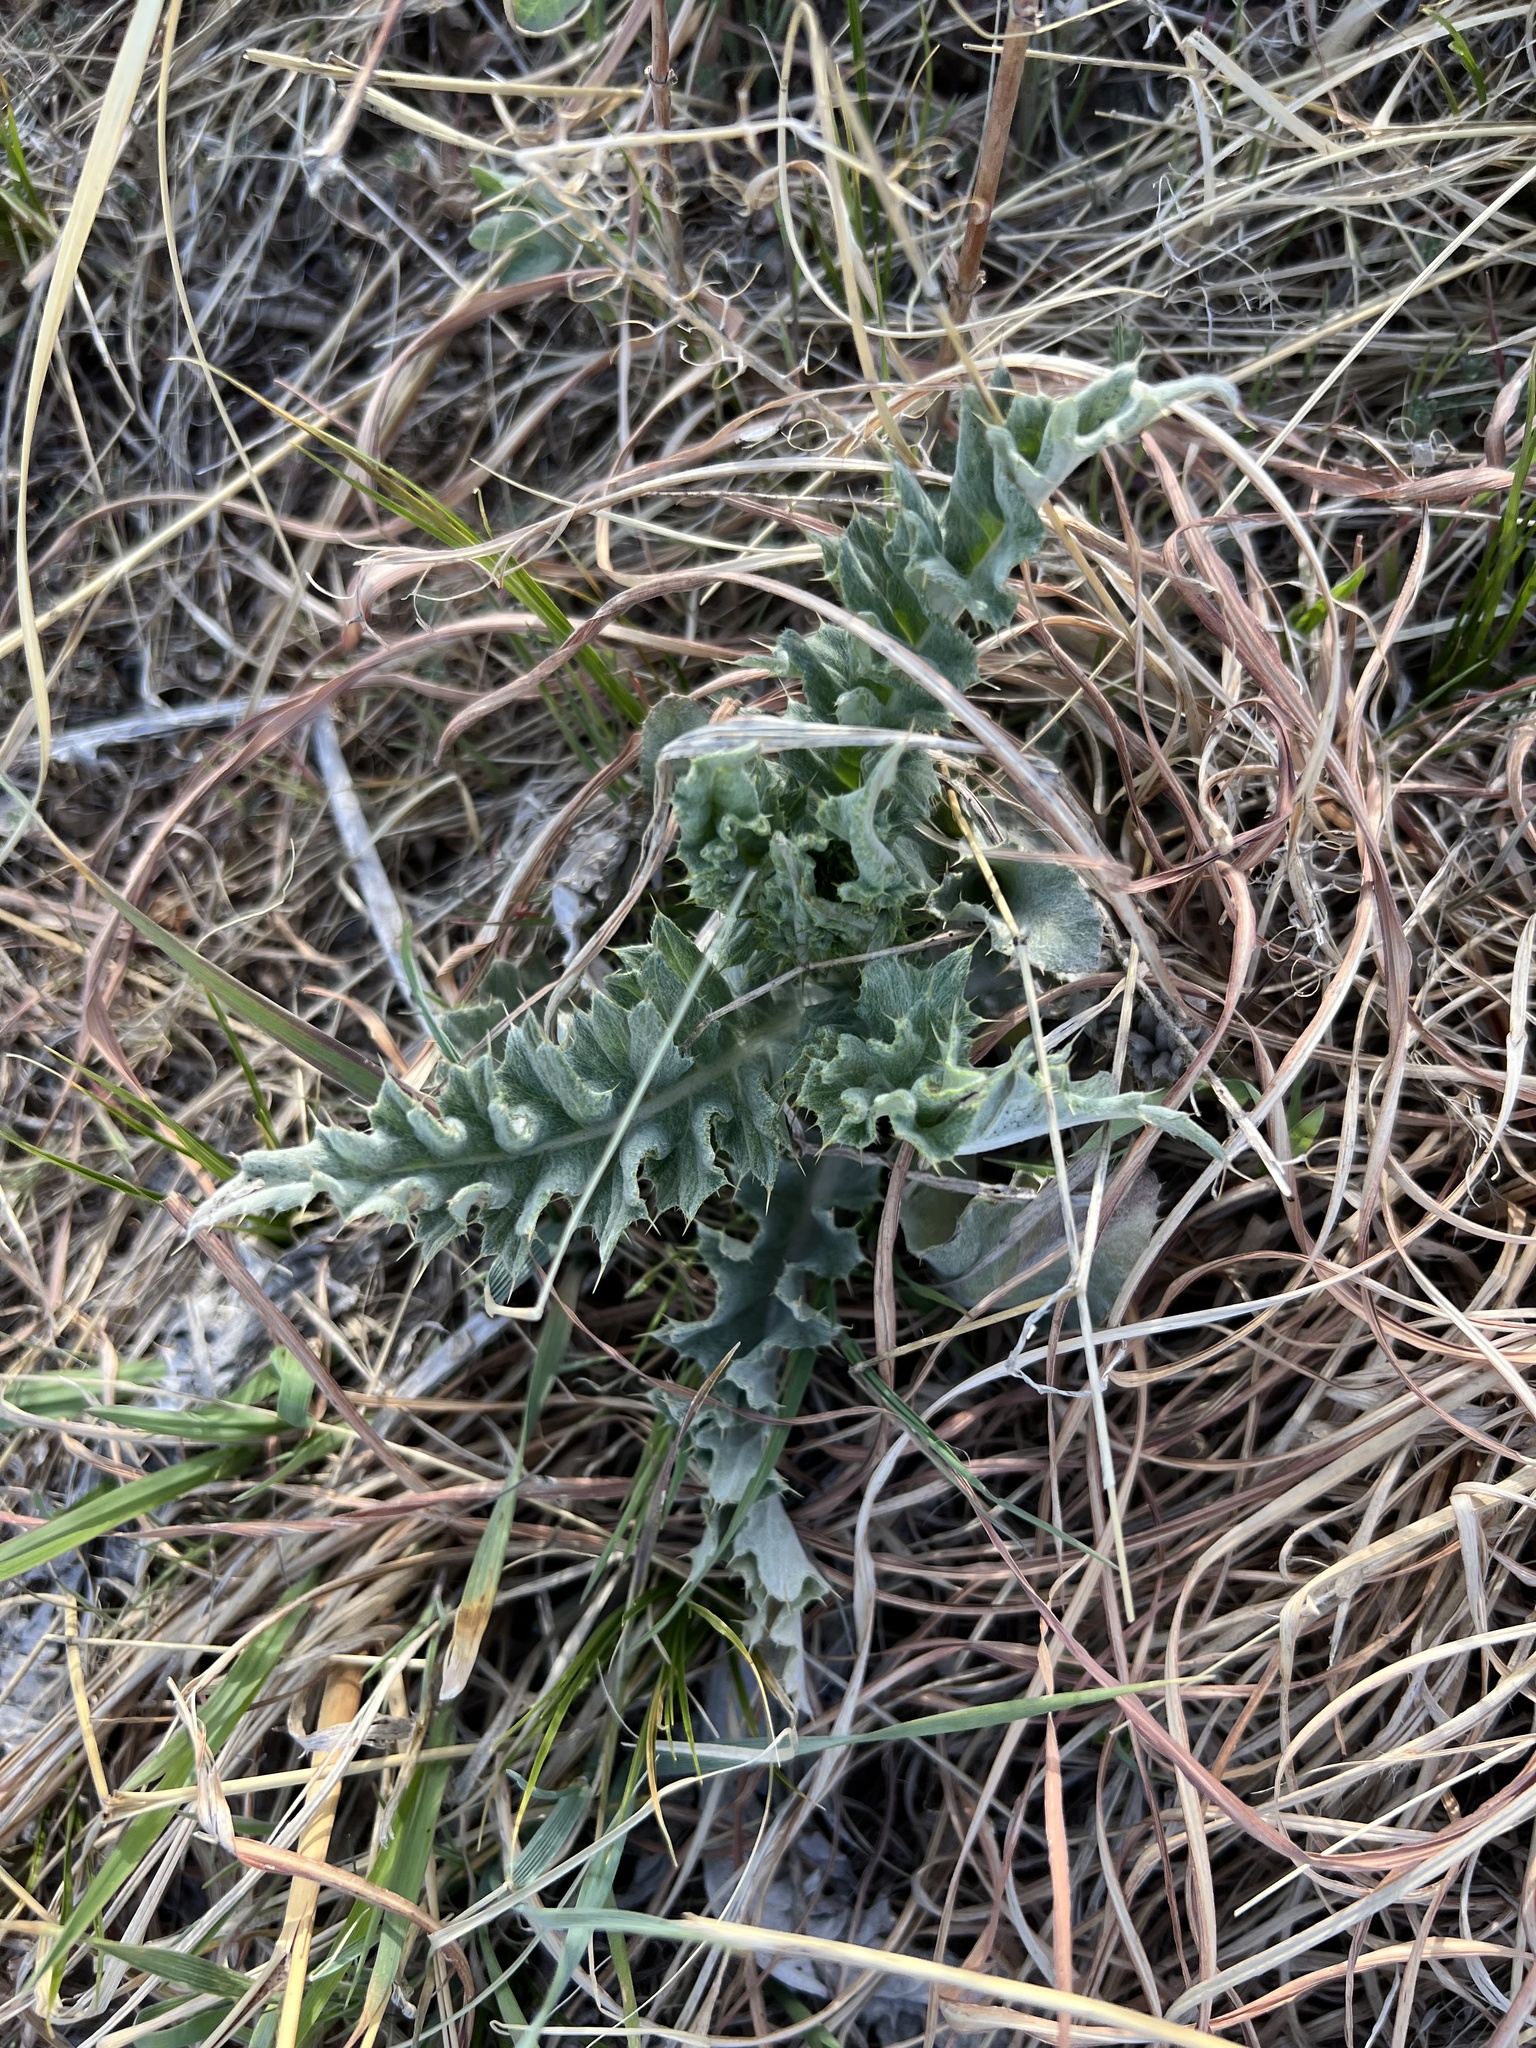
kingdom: Plantae
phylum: Tracheophyta
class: Magnoliopsida
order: Asterales
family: Asteraceae
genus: Cirsium
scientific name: Cirsium undulatum
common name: Pasture thistle
